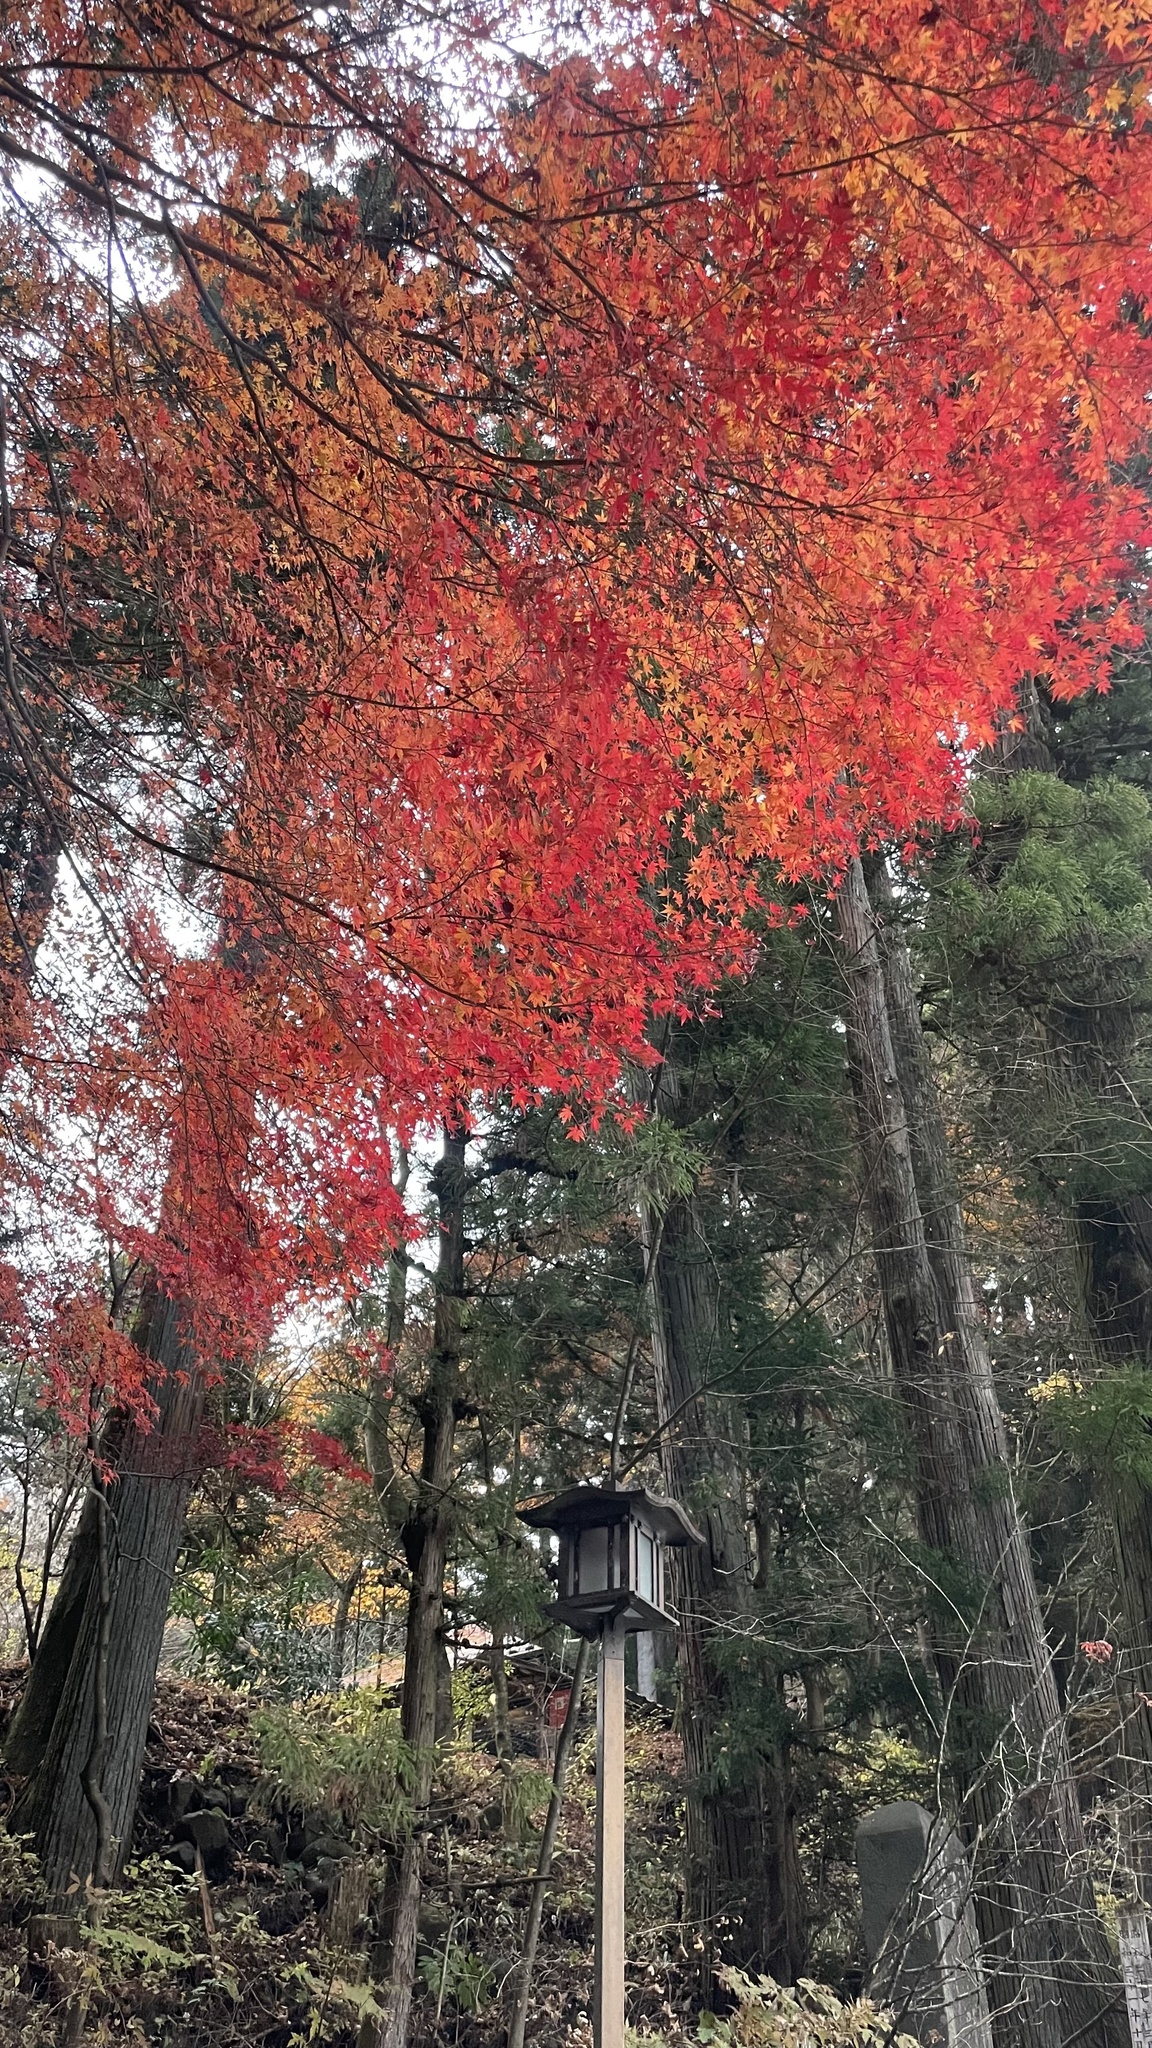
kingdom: Plantae
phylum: Tracheophyta
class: Magnoliopsida
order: Sapindales
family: Sapindaceae
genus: Acer
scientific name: Acer palmatum
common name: Japanese maple
